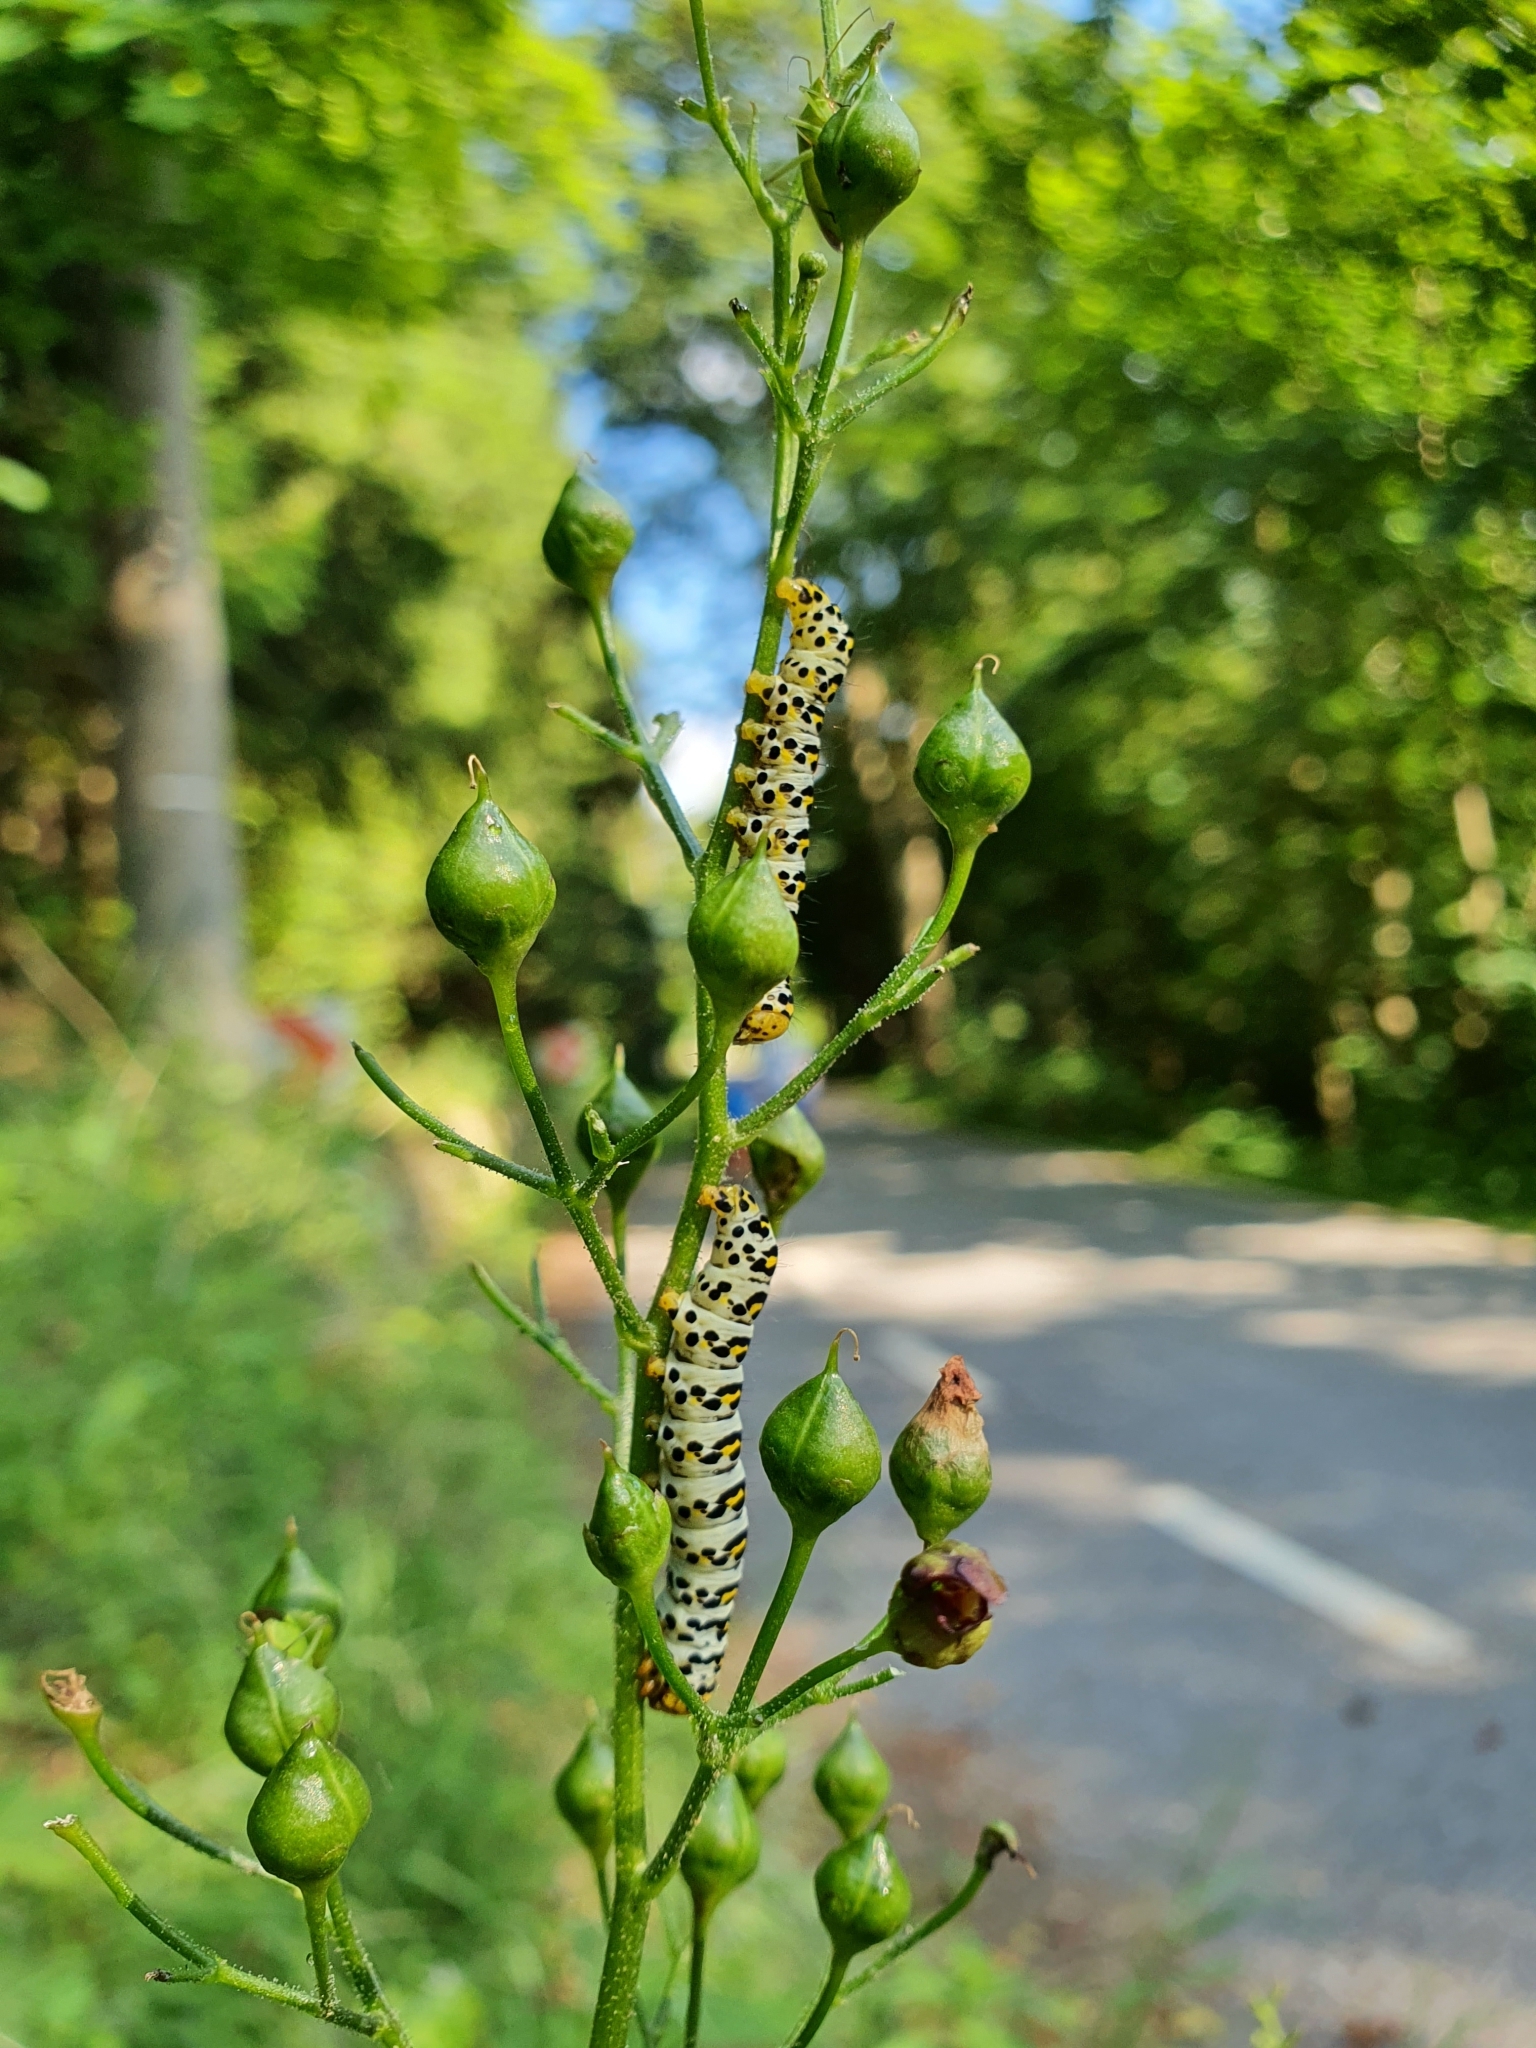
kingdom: Animalia
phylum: Arthropoda
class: Insecta
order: Lepidoptera
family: Noctuidae
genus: Shargacucullia
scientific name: Shargacucullia scrophulariae
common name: Water betony
